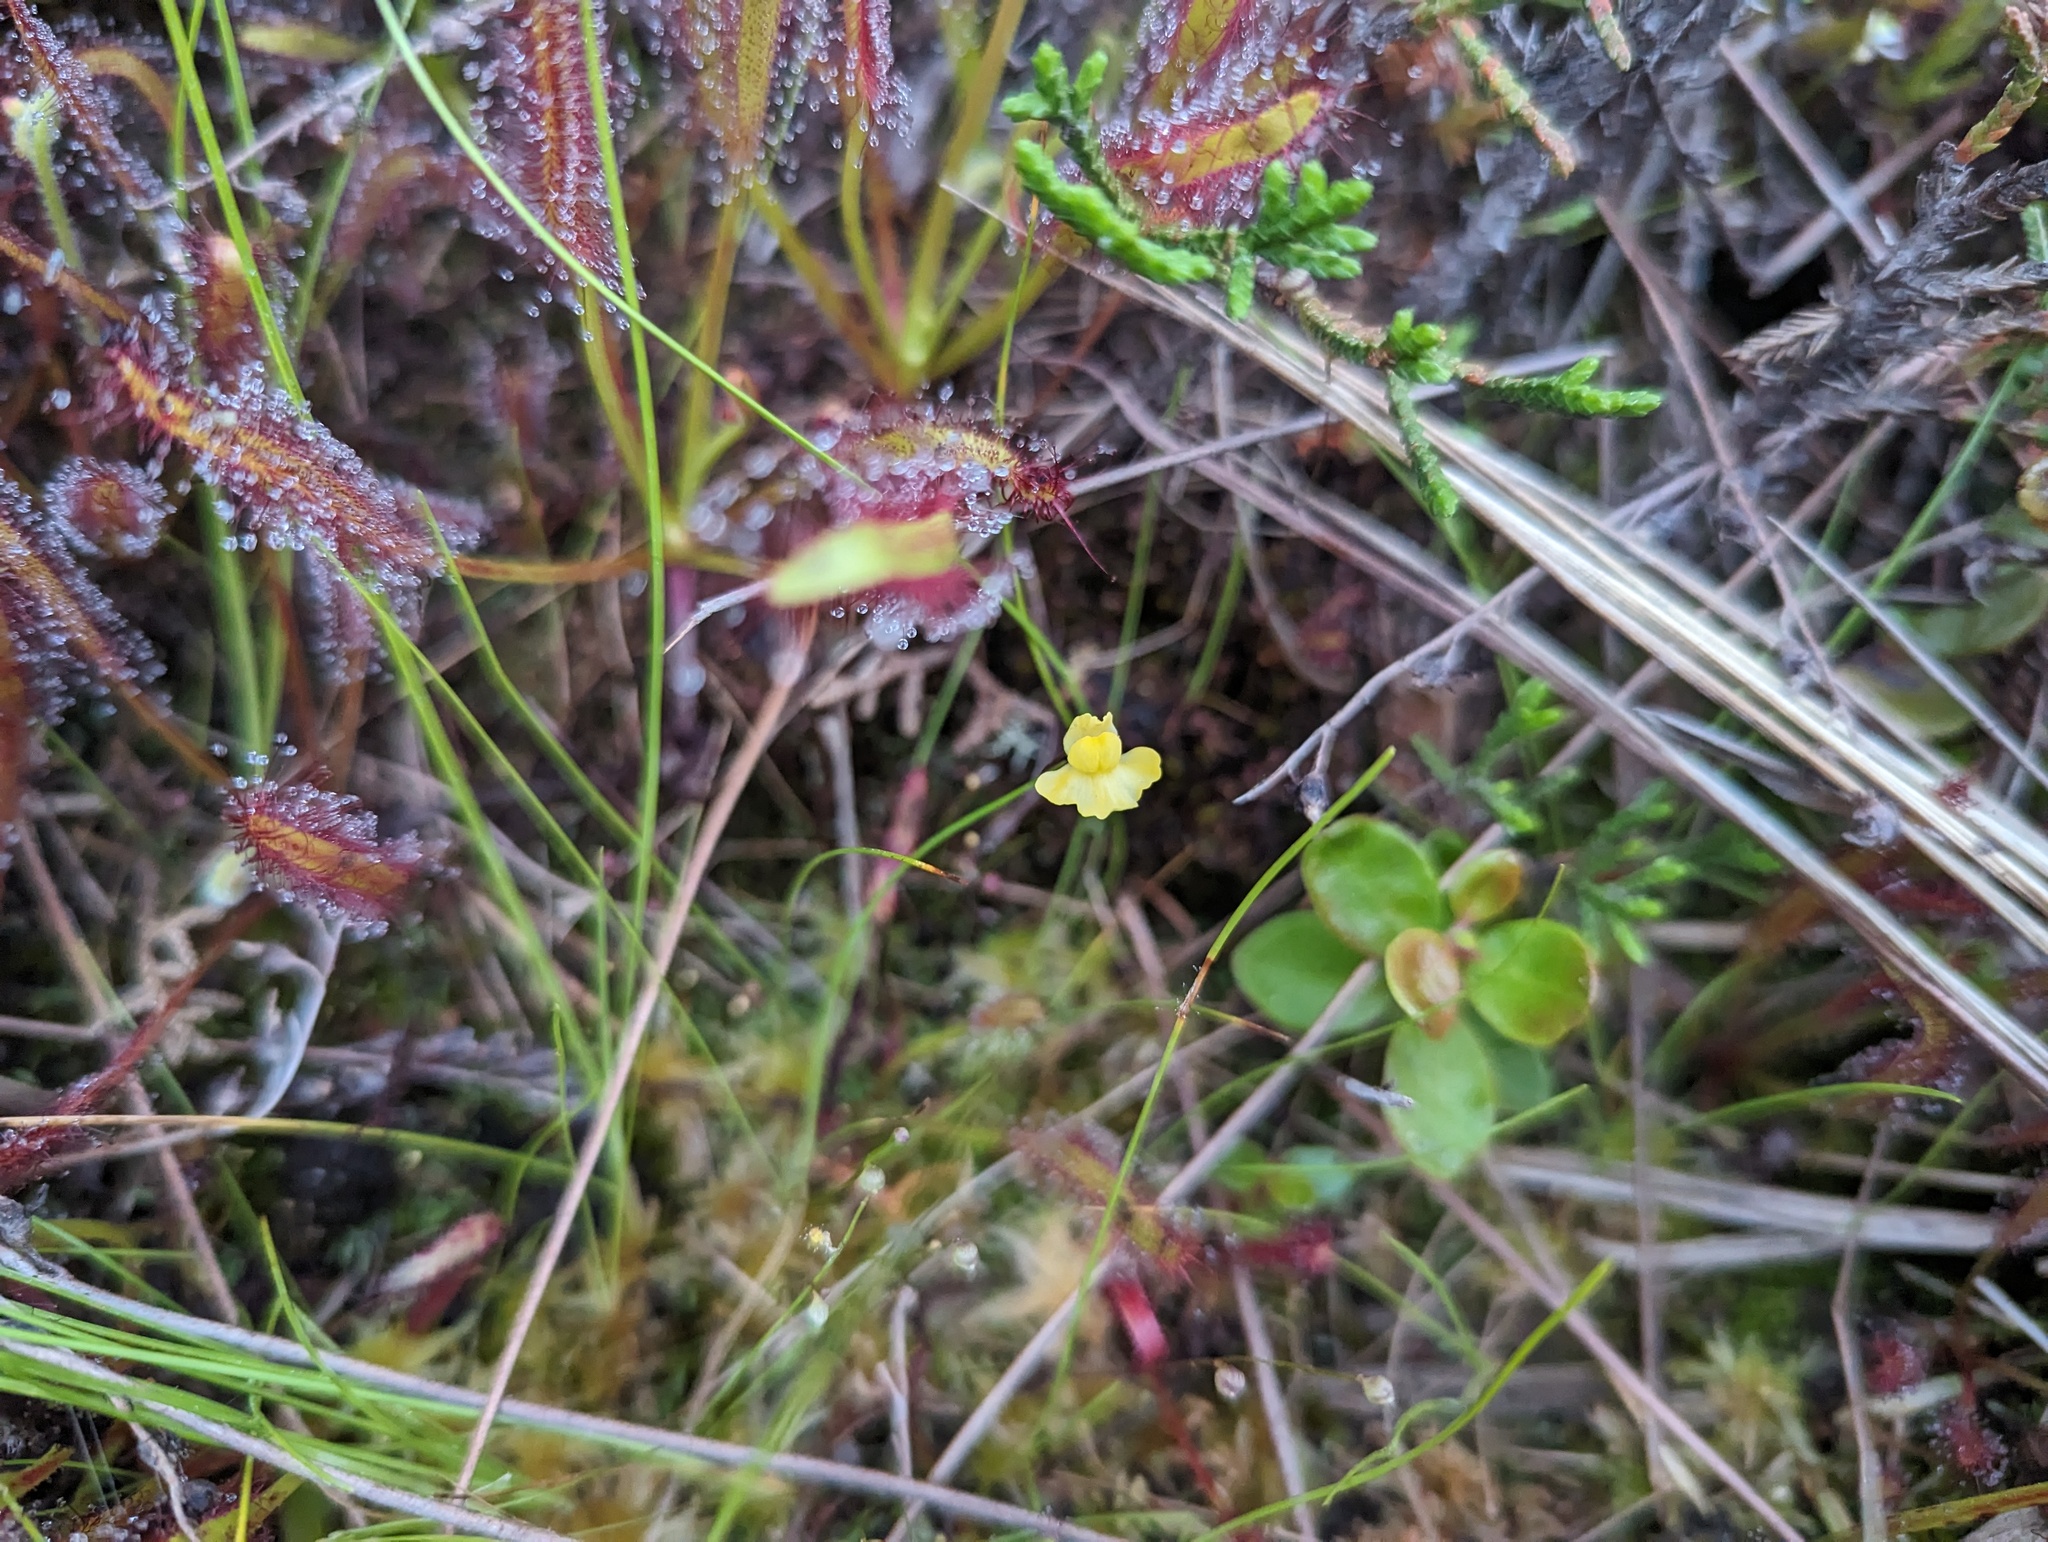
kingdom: Plantae
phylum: Tracheophyta
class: Magnoliopsida
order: Lamiales
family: Lentibulariaceae
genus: Utricularia
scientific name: Utricularia subulata
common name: Tiny bladderwort
